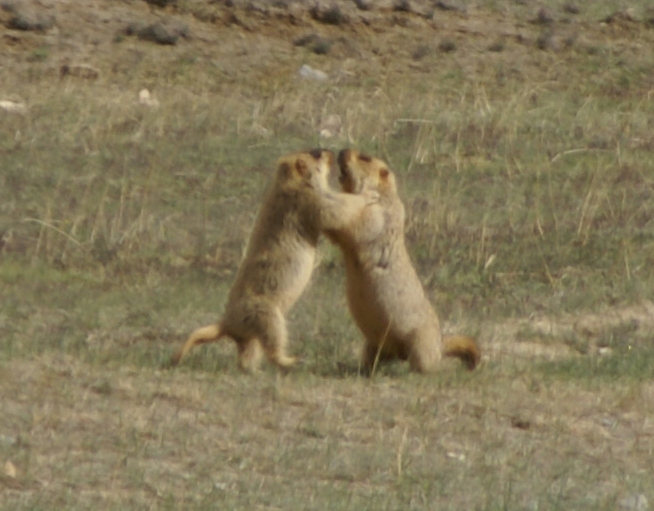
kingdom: Animalia
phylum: Chordata
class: Mammalia
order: Rodentia
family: Sciuridae
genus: Marmota
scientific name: Marmota himalayana
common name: Himalayan marmot
